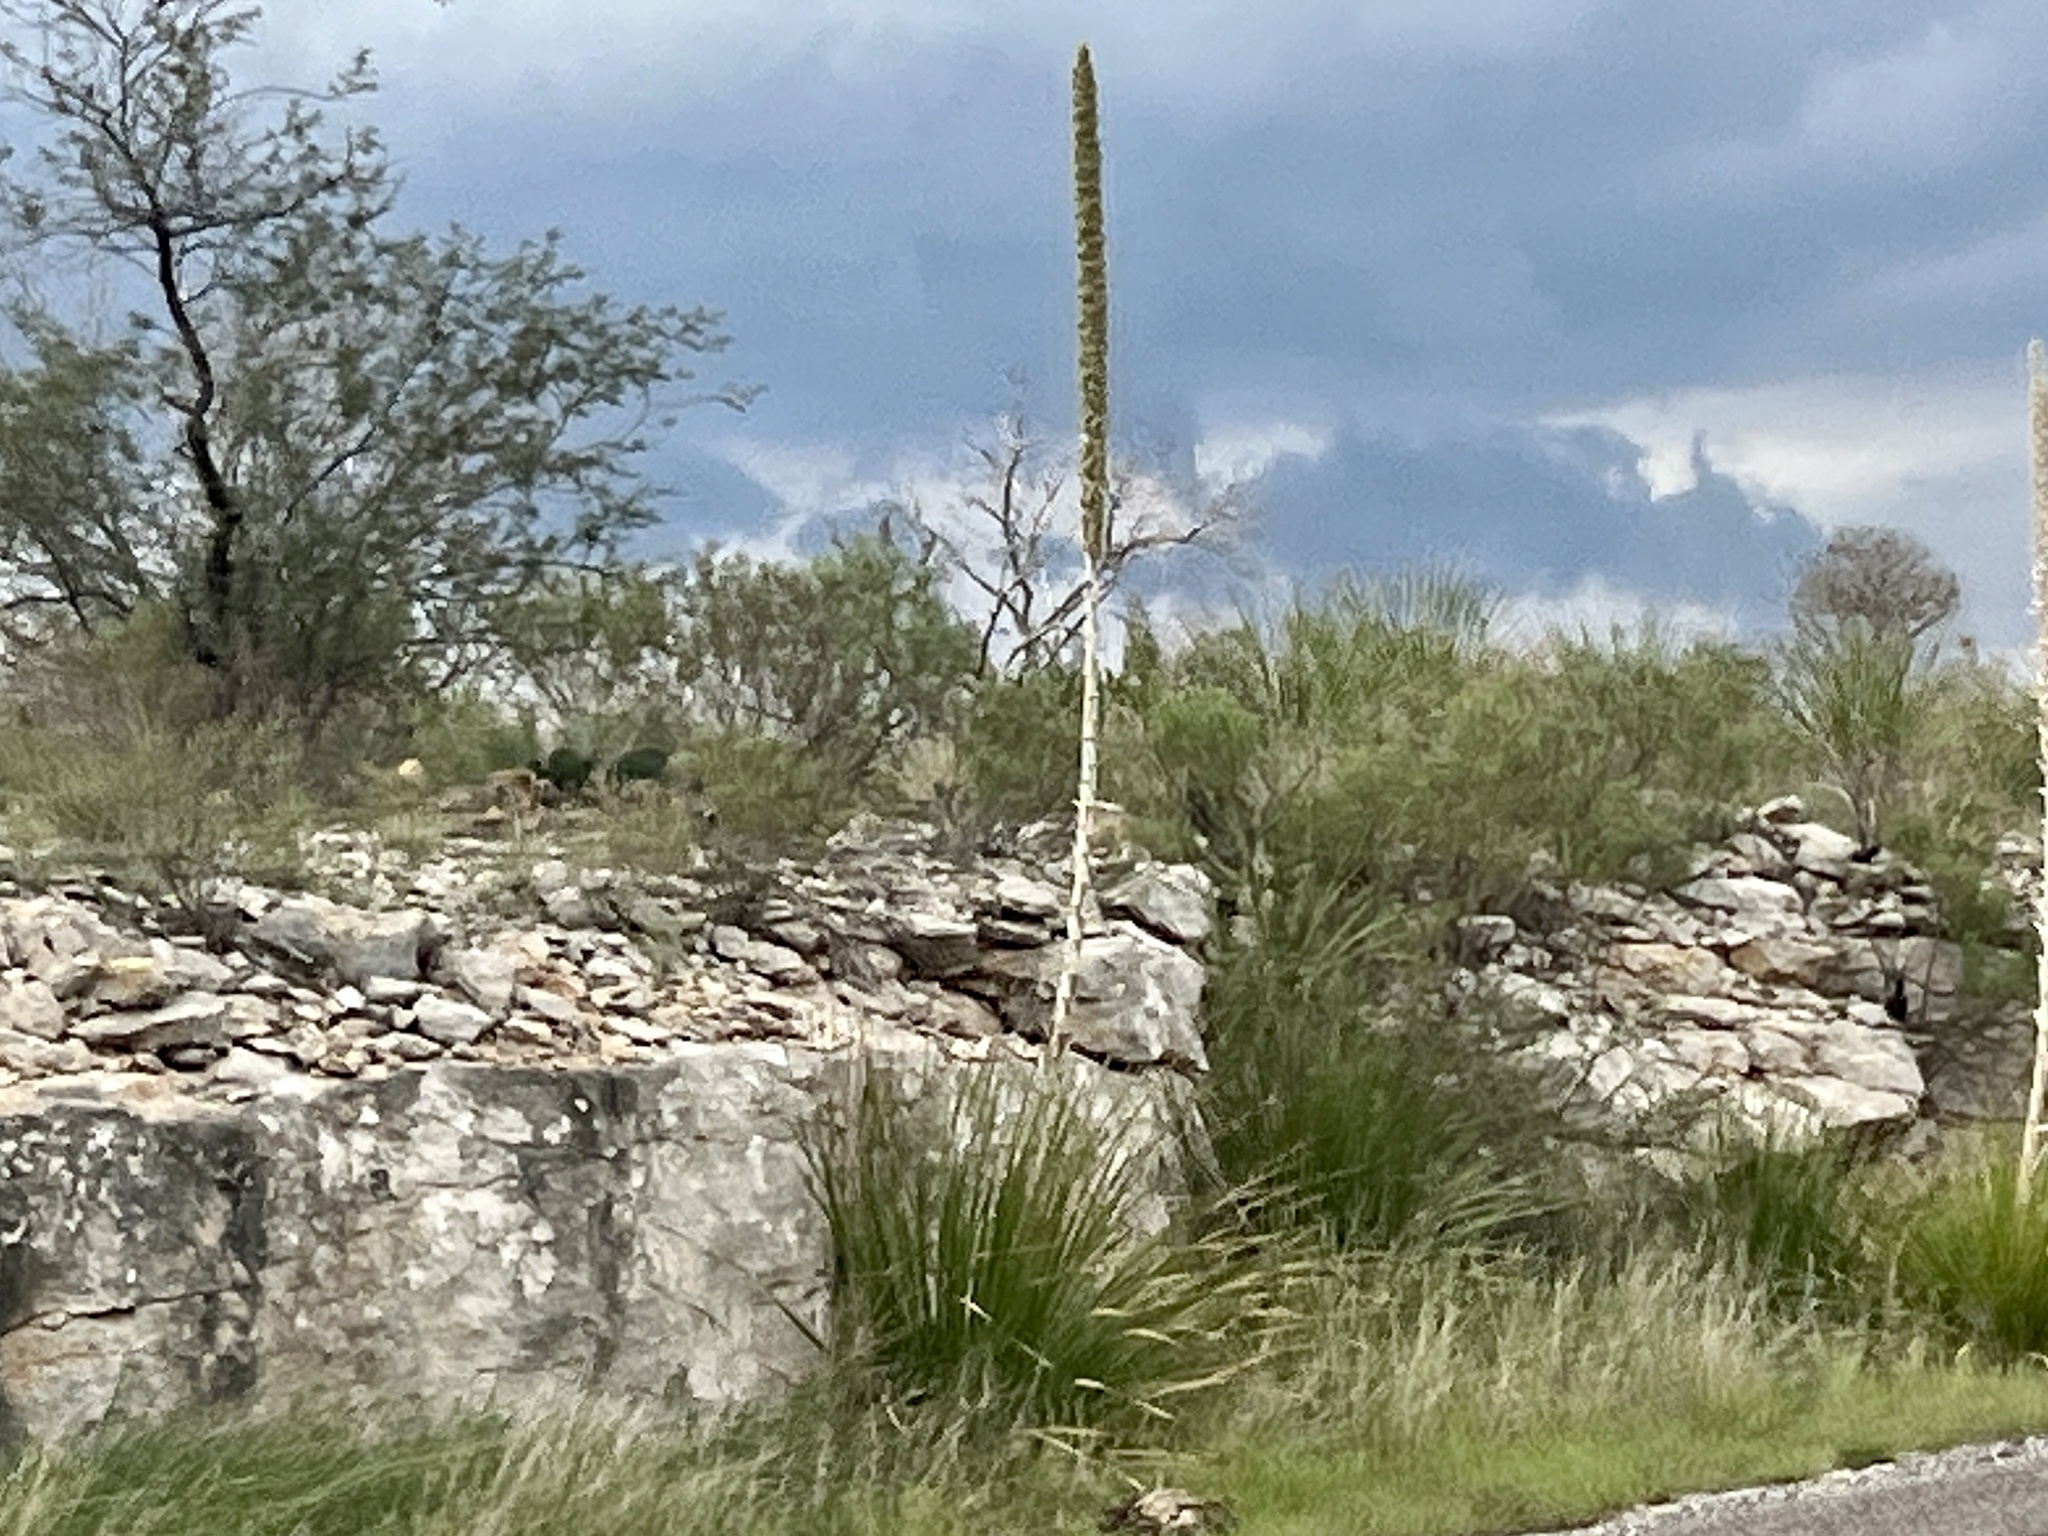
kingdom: Plantae
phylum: Tracheophyta
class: Liliopsida
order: Asparagales
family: Asparagaceae
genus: Dasylirion
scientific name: Dasylirion texanum
